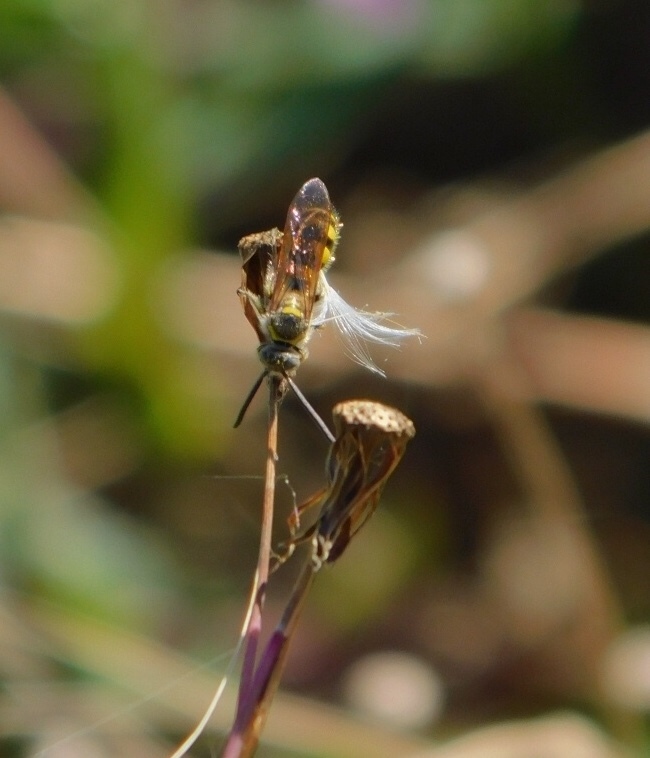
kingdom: Animalia
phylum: Arthropoda
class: Insecta
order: Hymenoptera
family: Scoliidae
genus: Dielis
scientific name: Dielis
